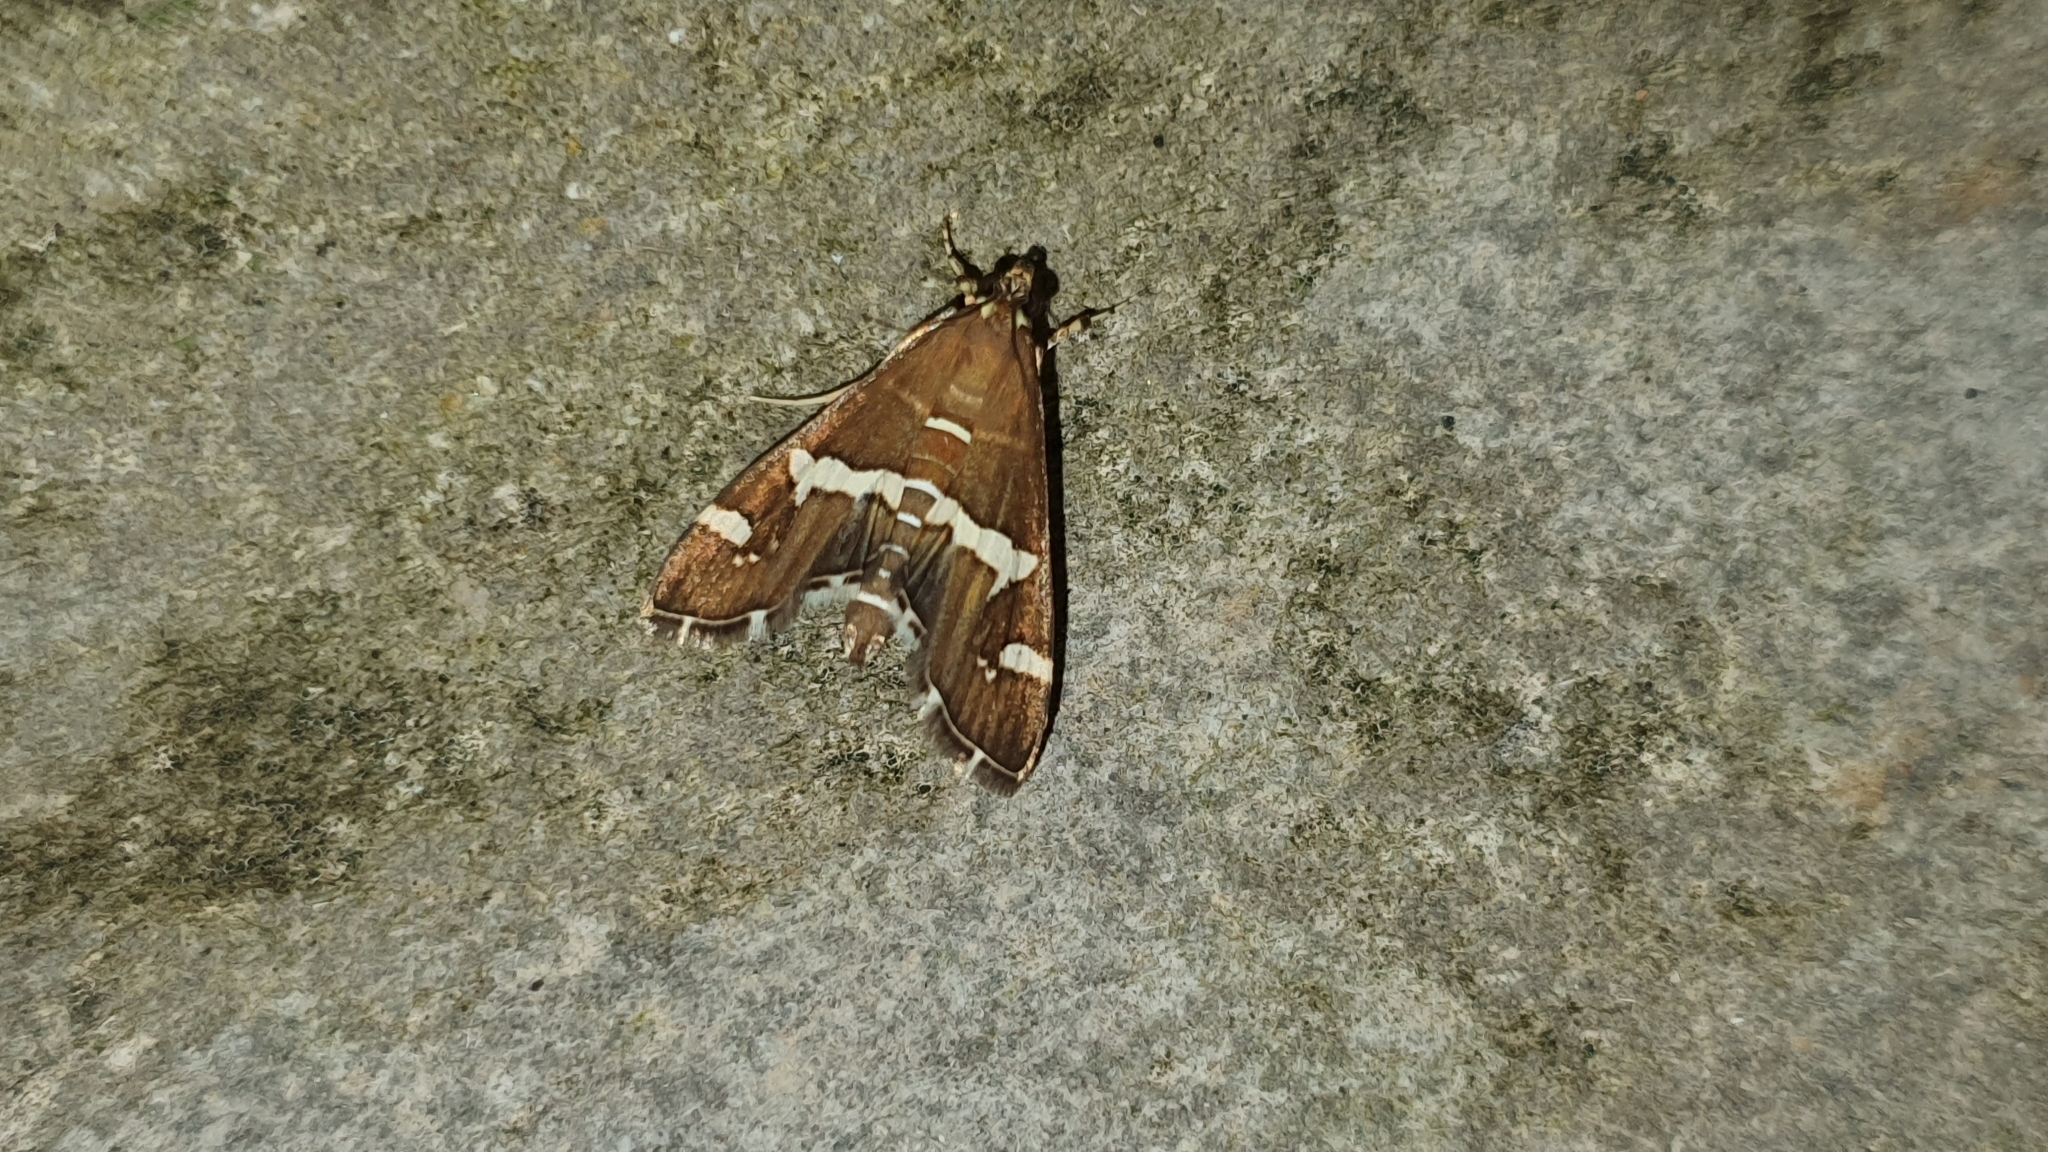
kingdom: Animalia
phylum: Arthropoda
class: Insecta
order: Lepidoptera
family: Crambidae
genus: Spoladea
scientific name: Spoladea recurvalis
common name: Beet webworm moth
